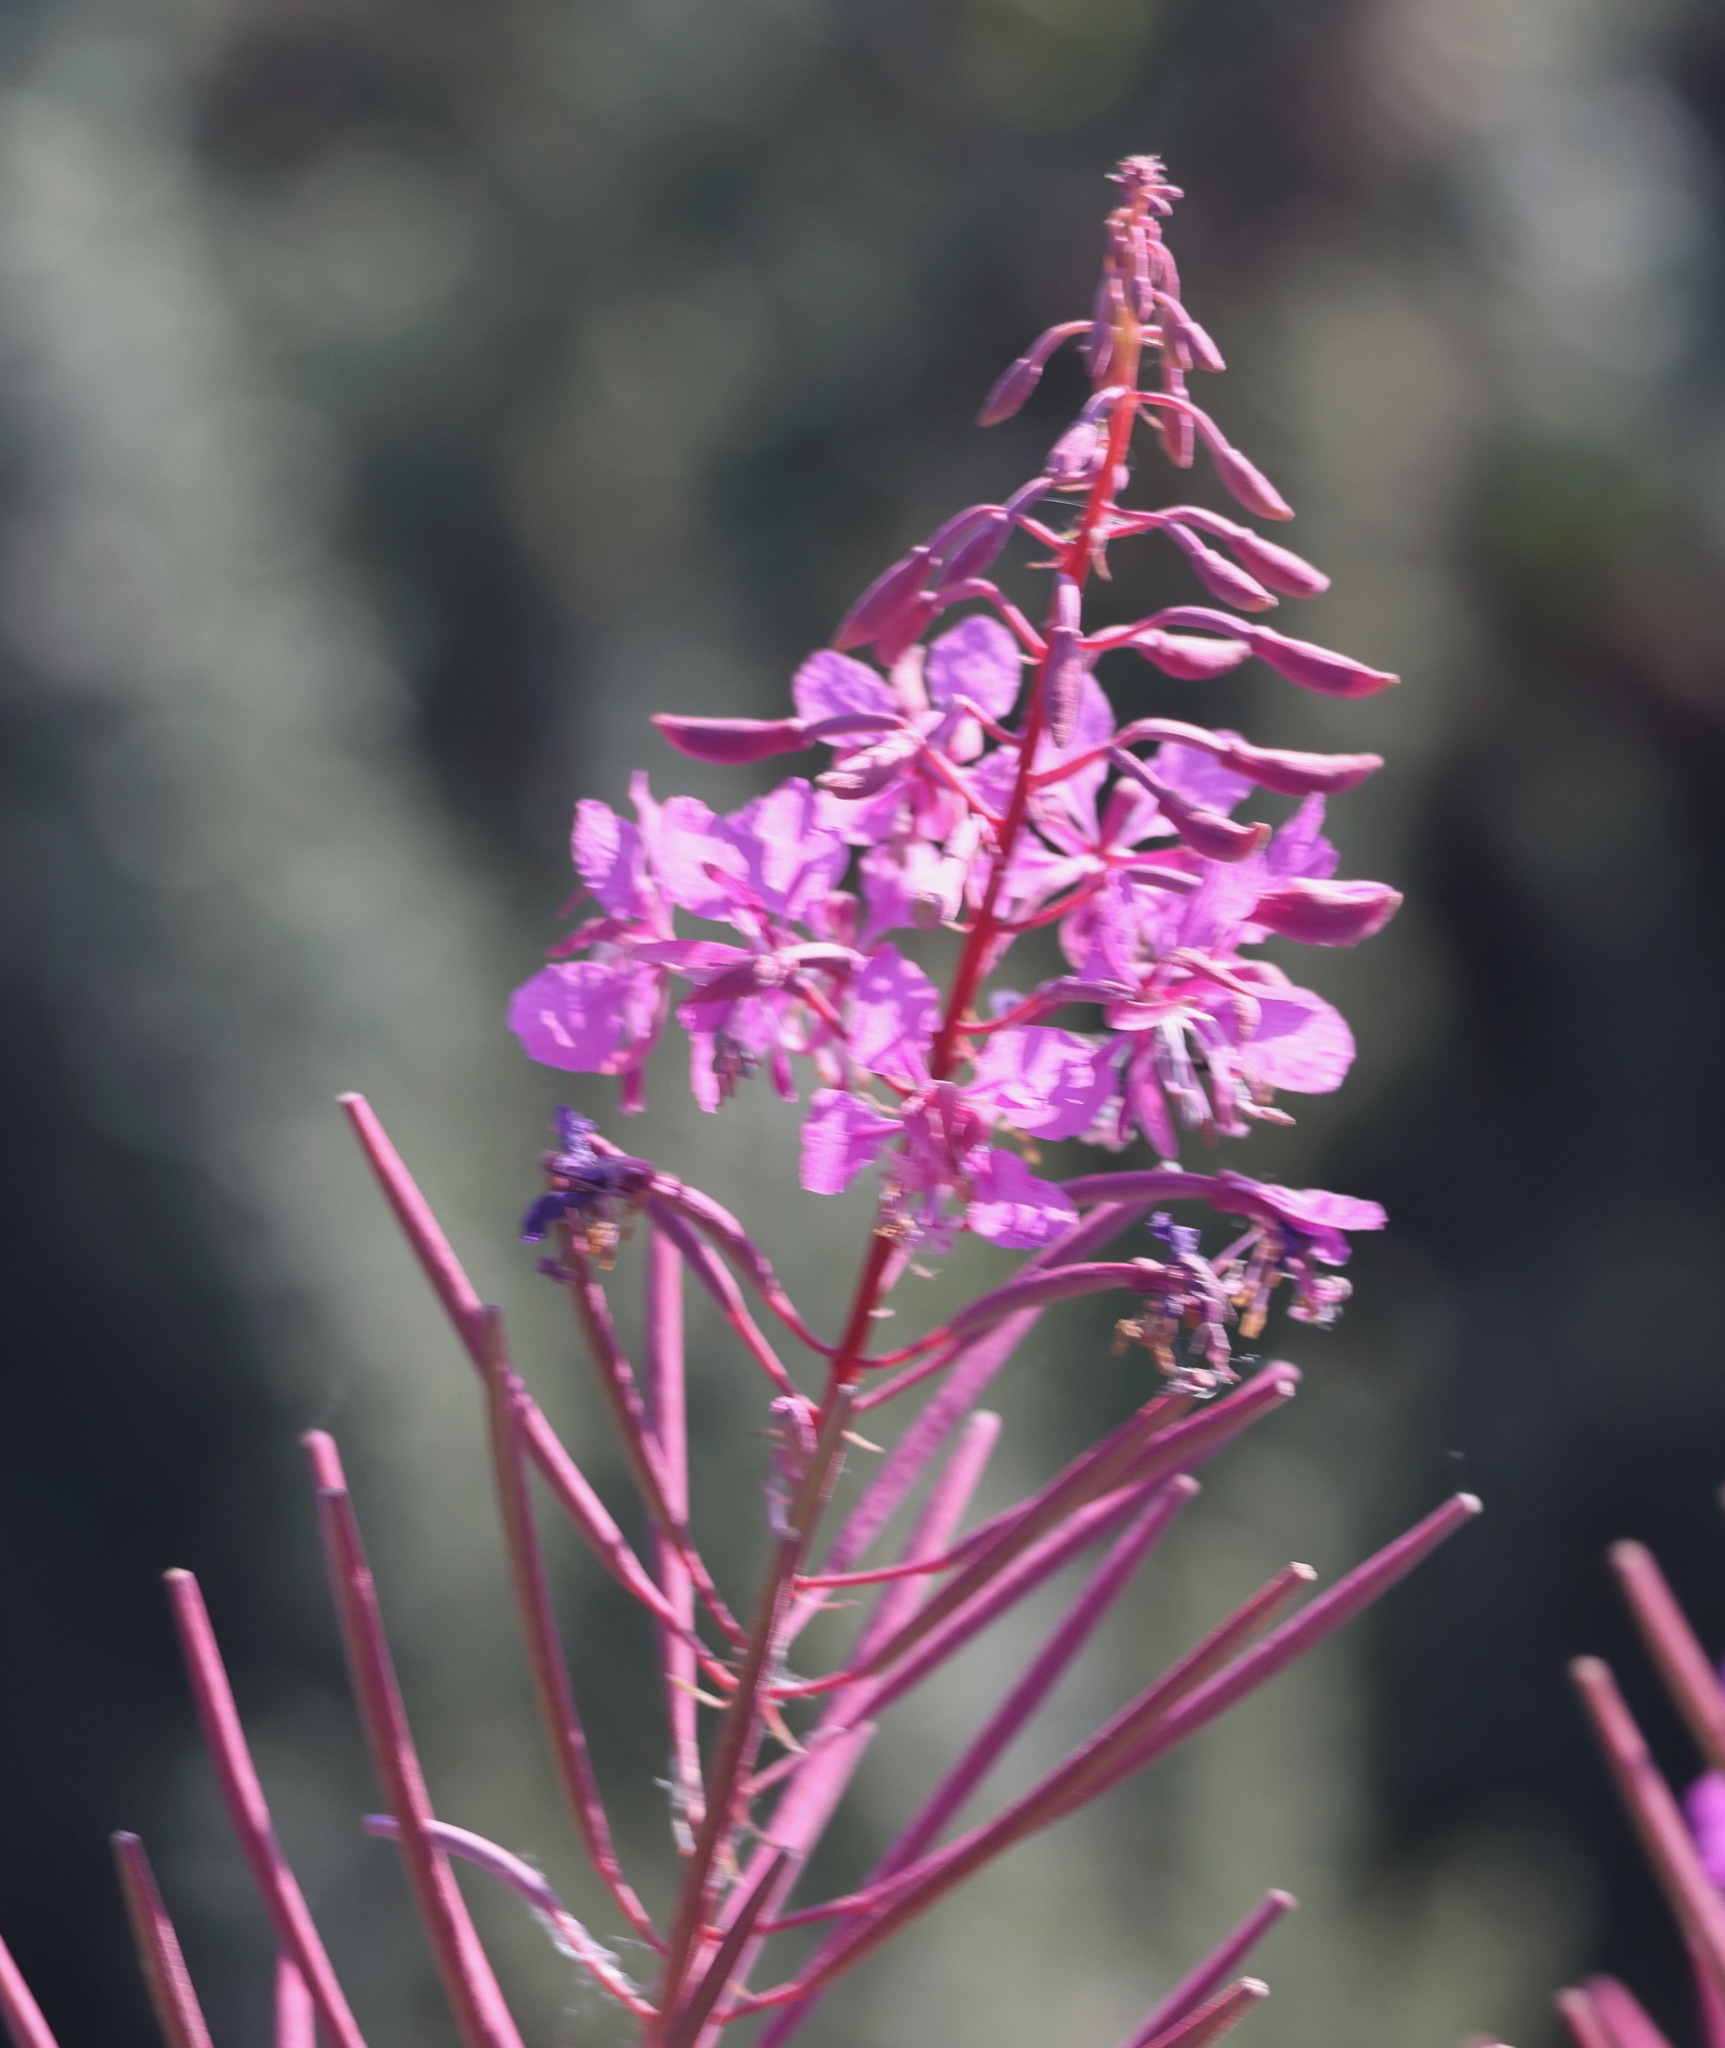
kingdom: Plantae
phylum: Tracheophyta
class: Magnoliopsida
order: Myrtales
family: Onagraceae
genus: Chamaenerion
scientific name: Chamaenerion angustifolium
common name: Fireweed
